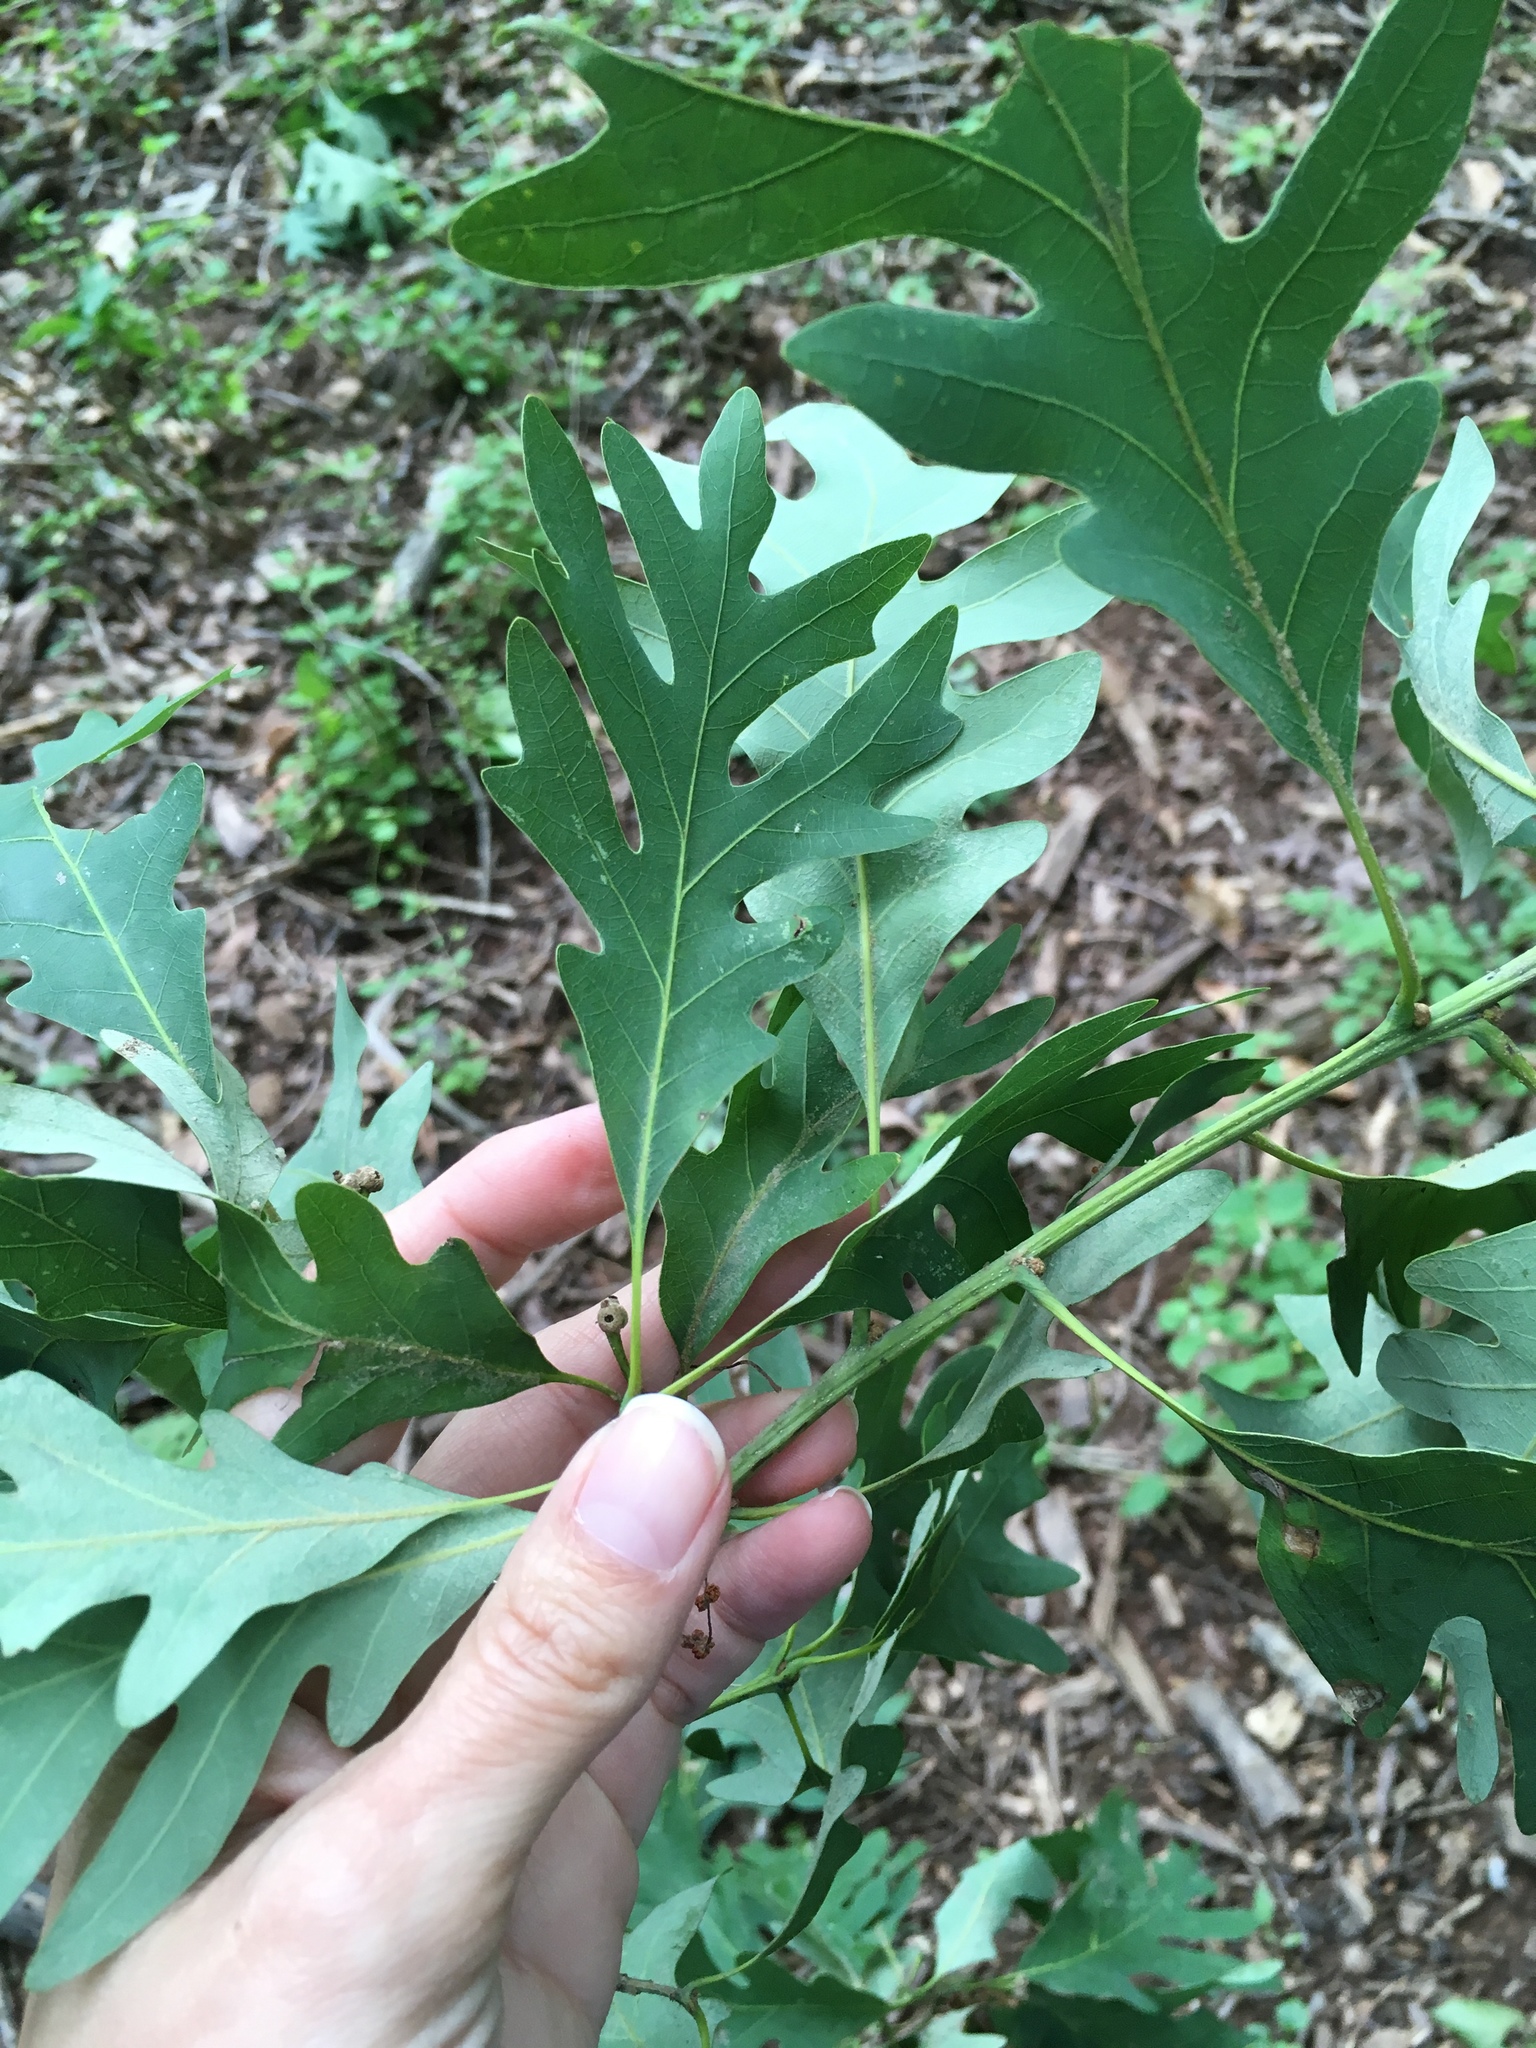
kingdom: Plantae
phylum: Tracheophyta
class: Magnoliopsida
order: Fagales
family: Fagaceae
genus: Quercus
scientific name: Quercus alba
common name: White oak
